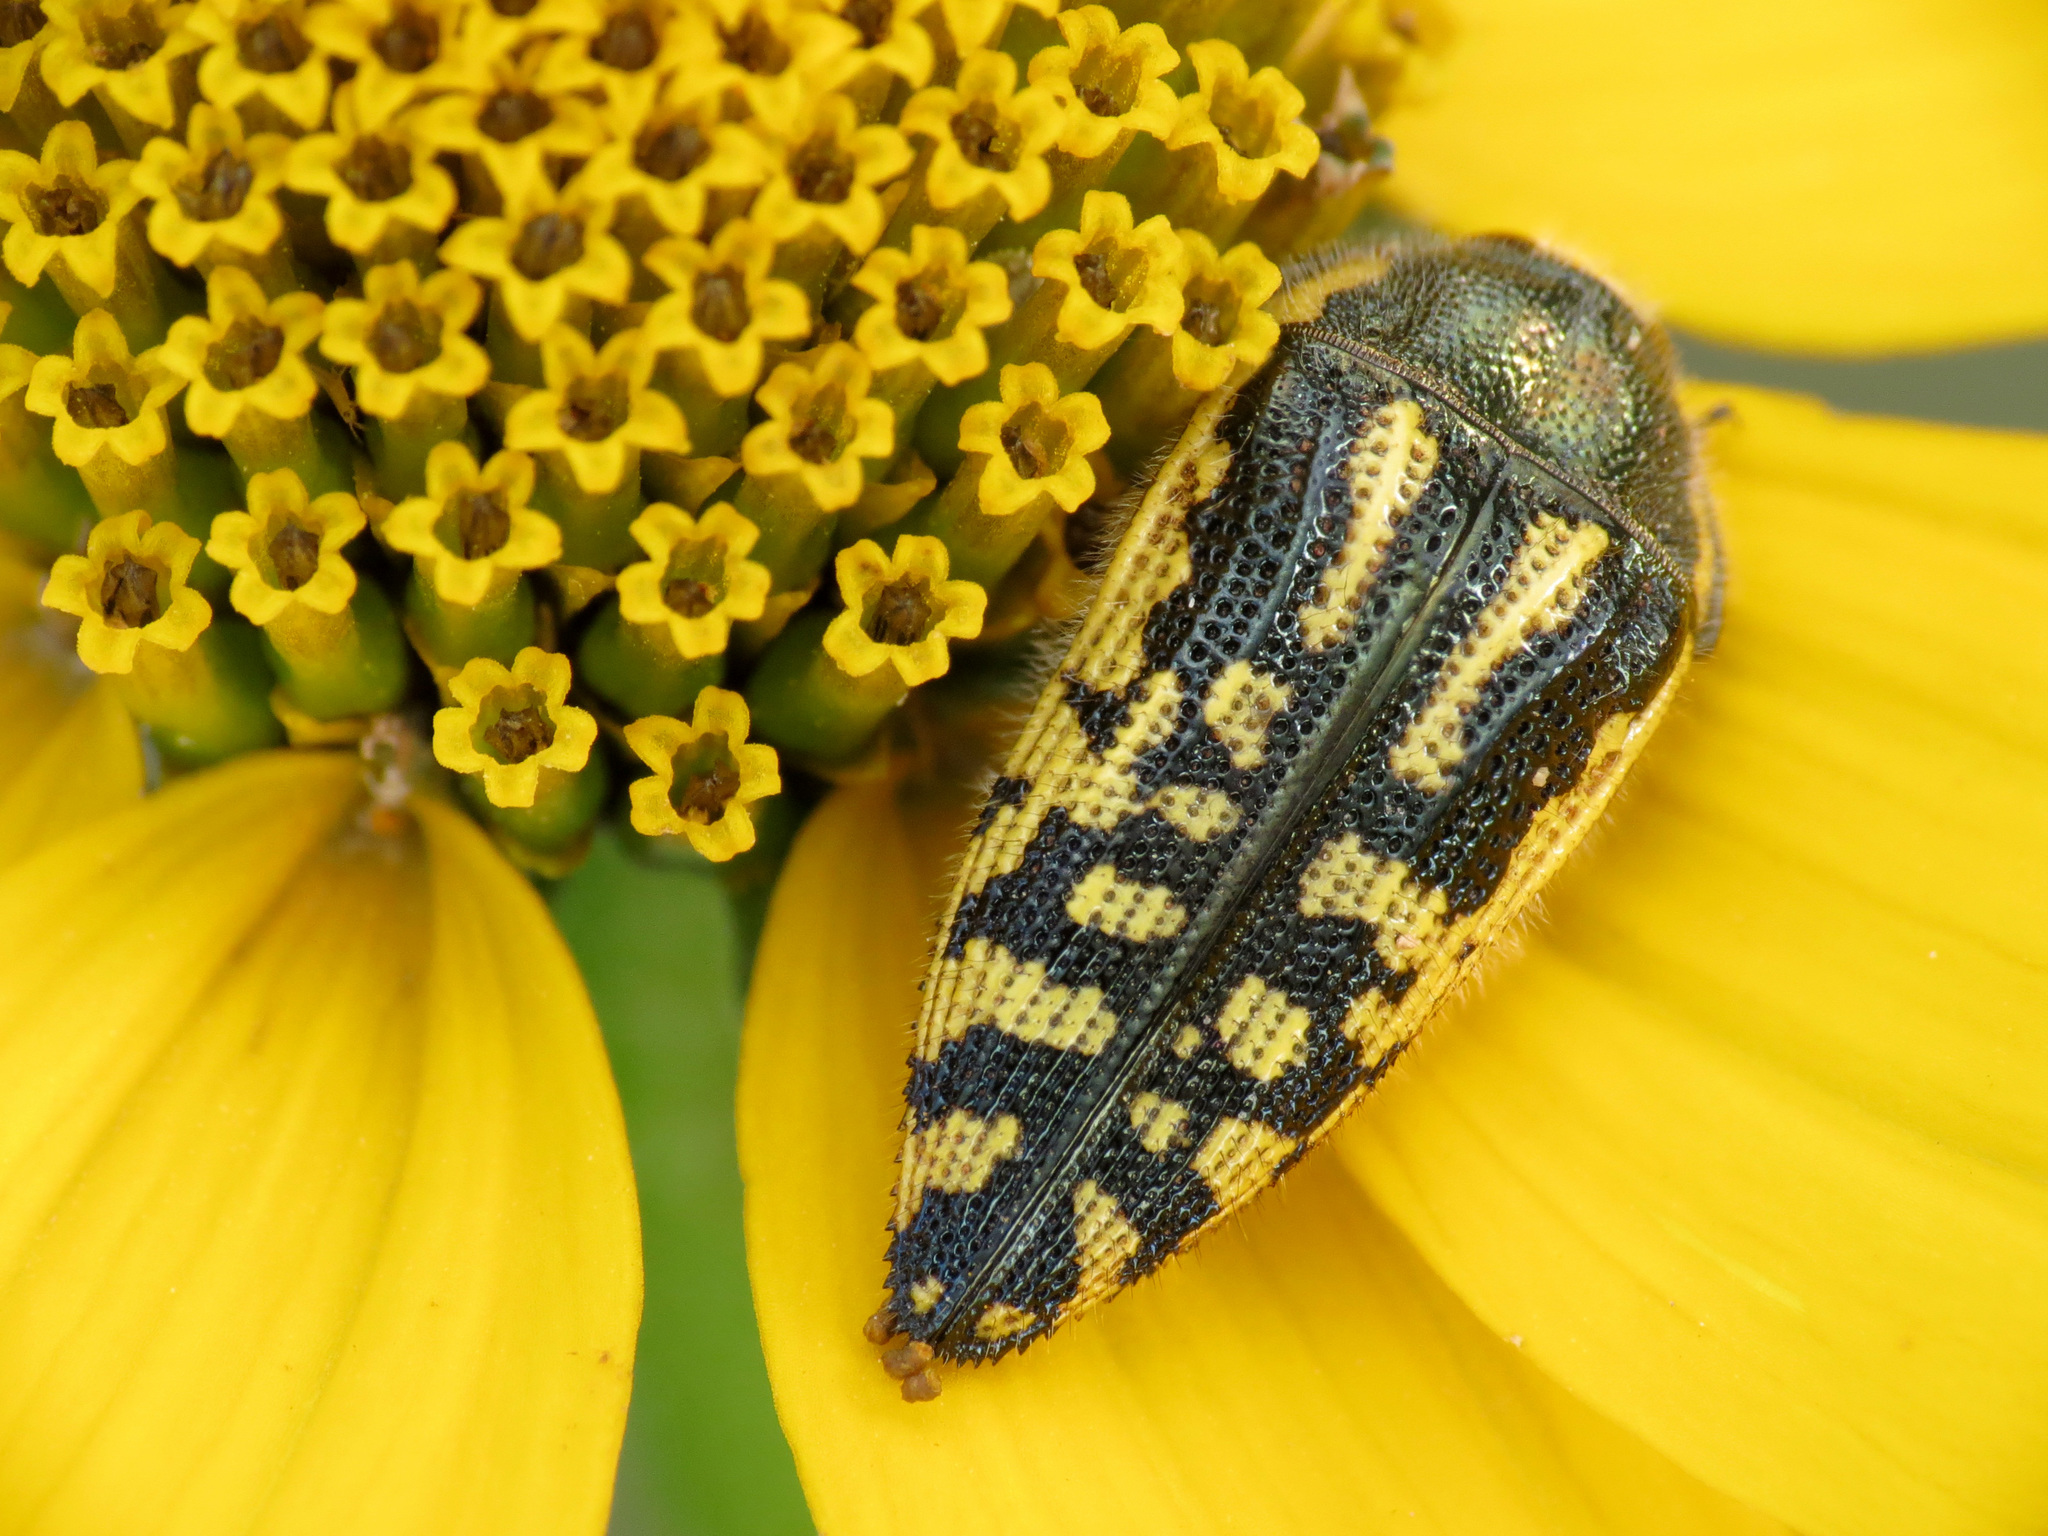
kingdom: Animalia
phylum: Arthropoda
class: Insecta
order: Coleoptera
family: Buprestidae
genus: Acmaeodera
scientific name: Acmaeodera amplicollis
